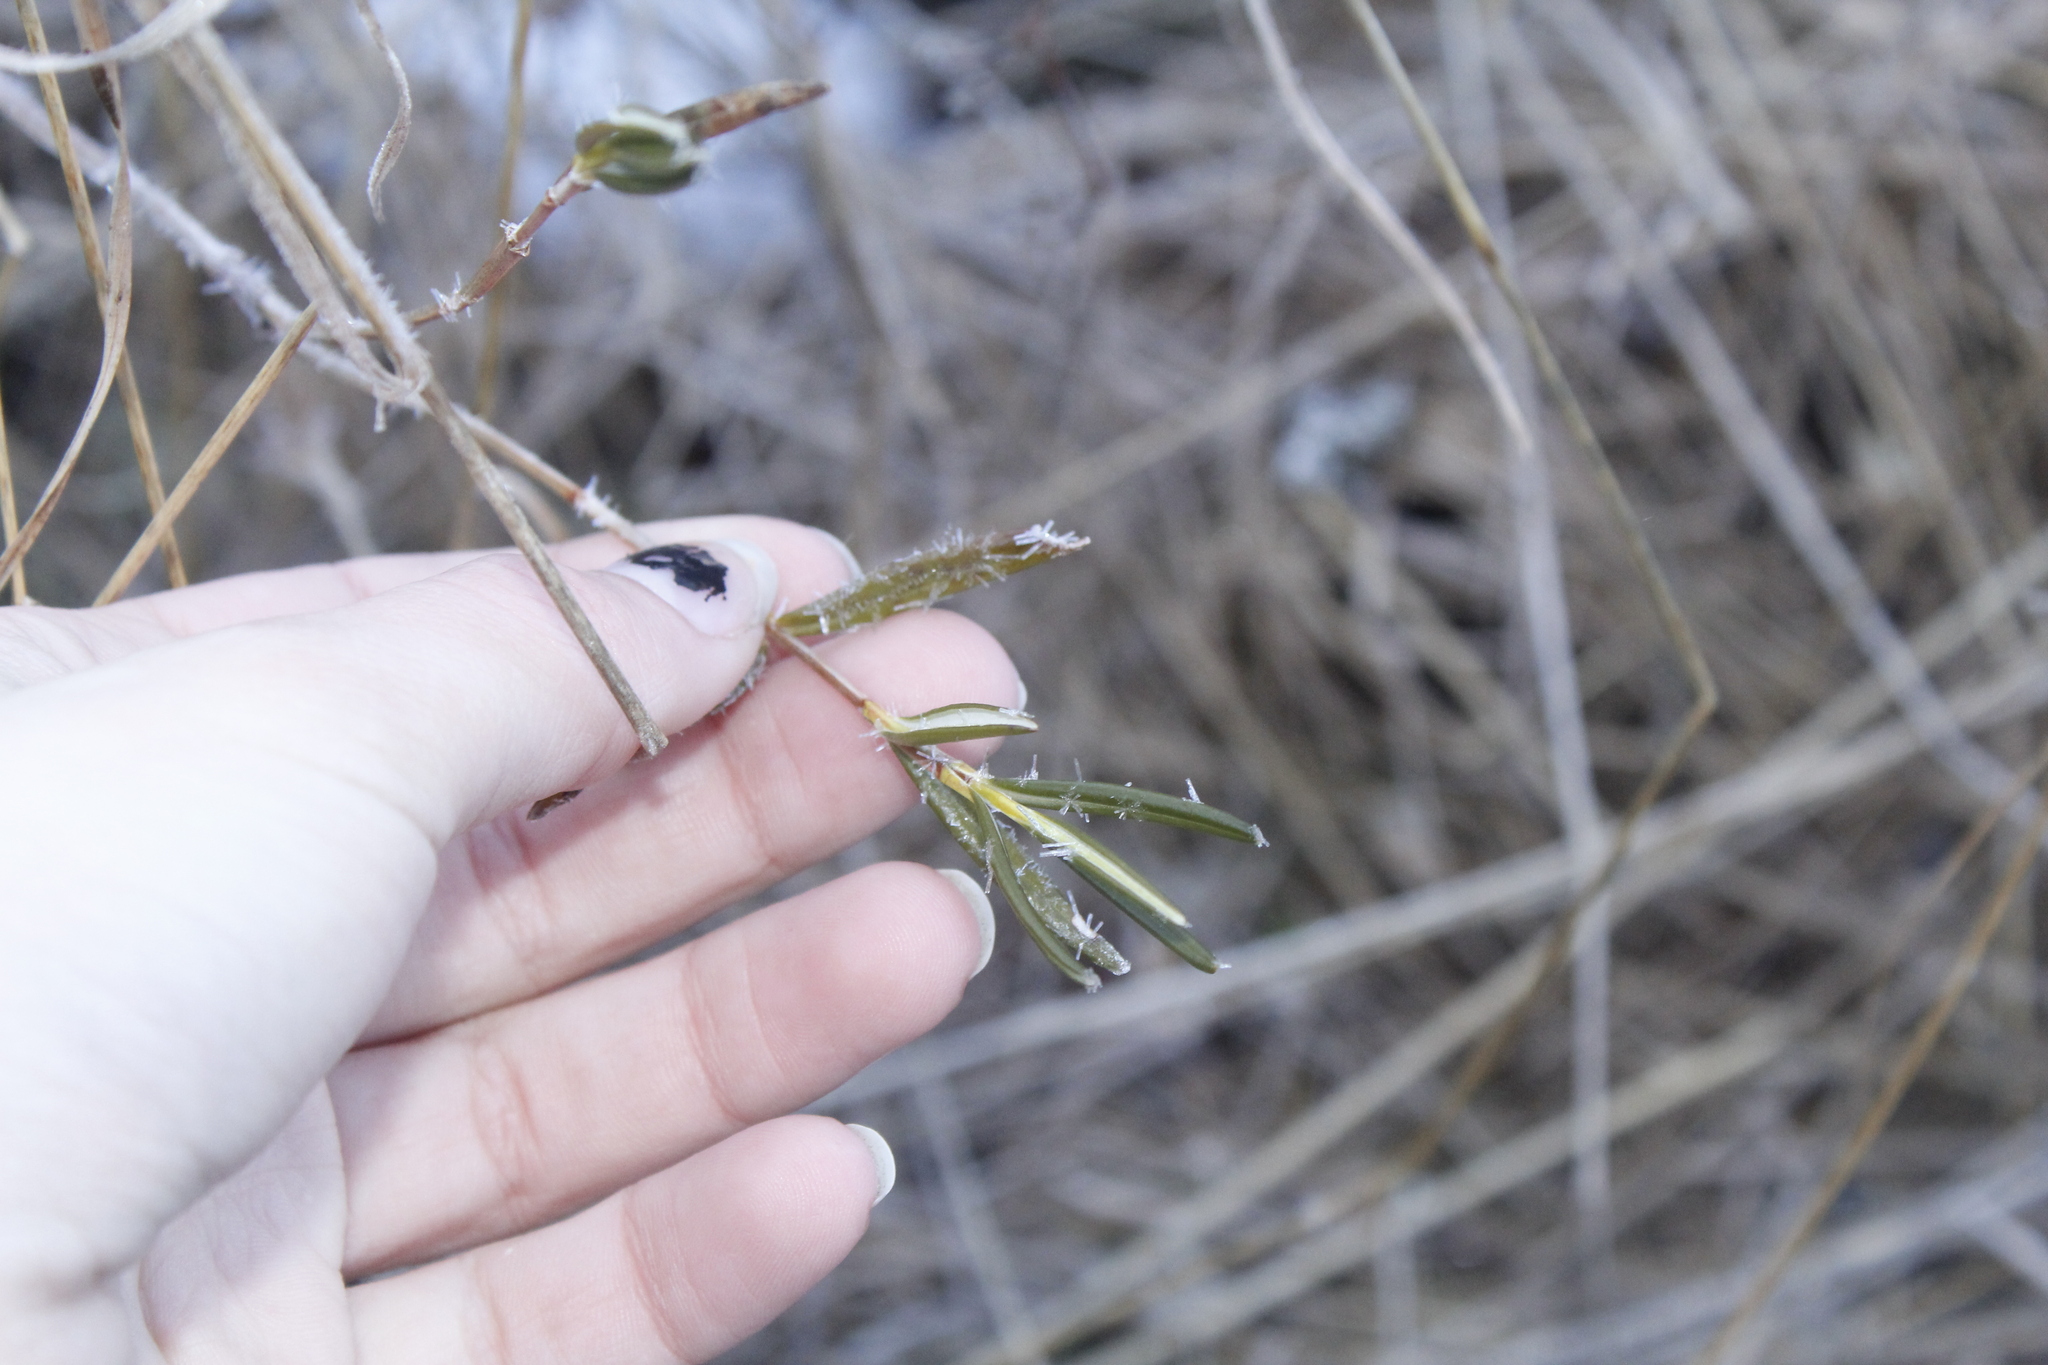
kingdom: Plantae
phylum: Tracheophyta
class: Magnoliopsida
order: Ericales
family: Ericaceae
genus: Kalmia
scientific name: Kalmia polifolia
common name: Bog-laurel
